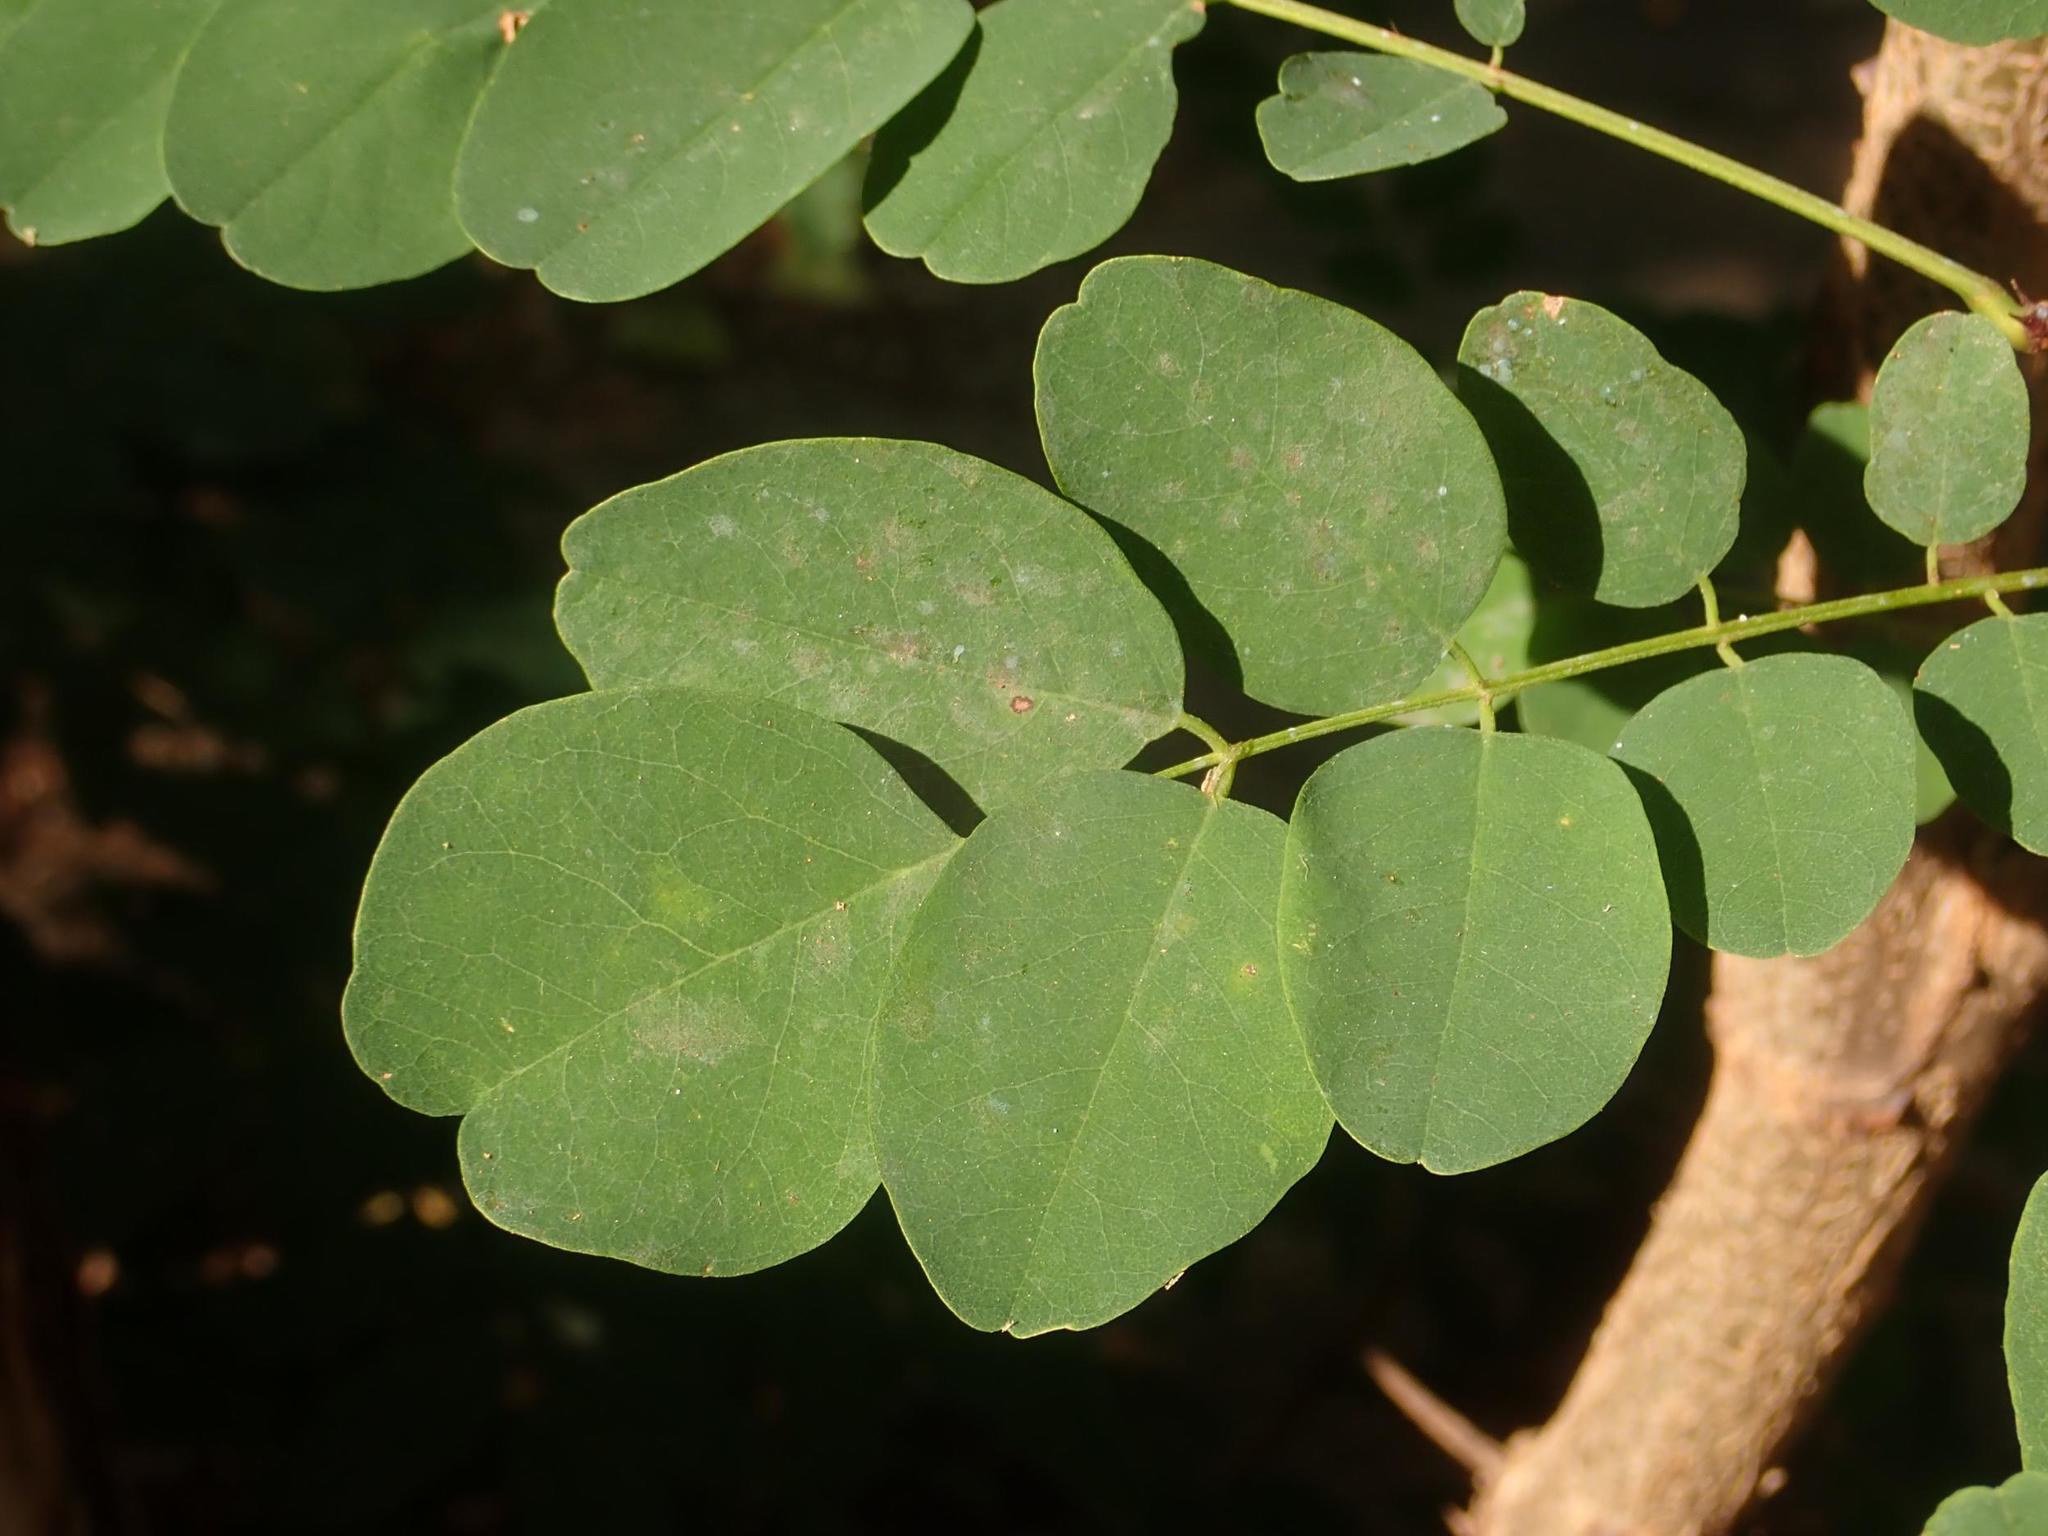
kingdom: Plantae
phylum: Tracheophyta
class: Magnoliopsida
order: Fabales
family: Fabaceae
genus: Robinia
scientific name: Robinia pseudoacacia
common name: Black locust
